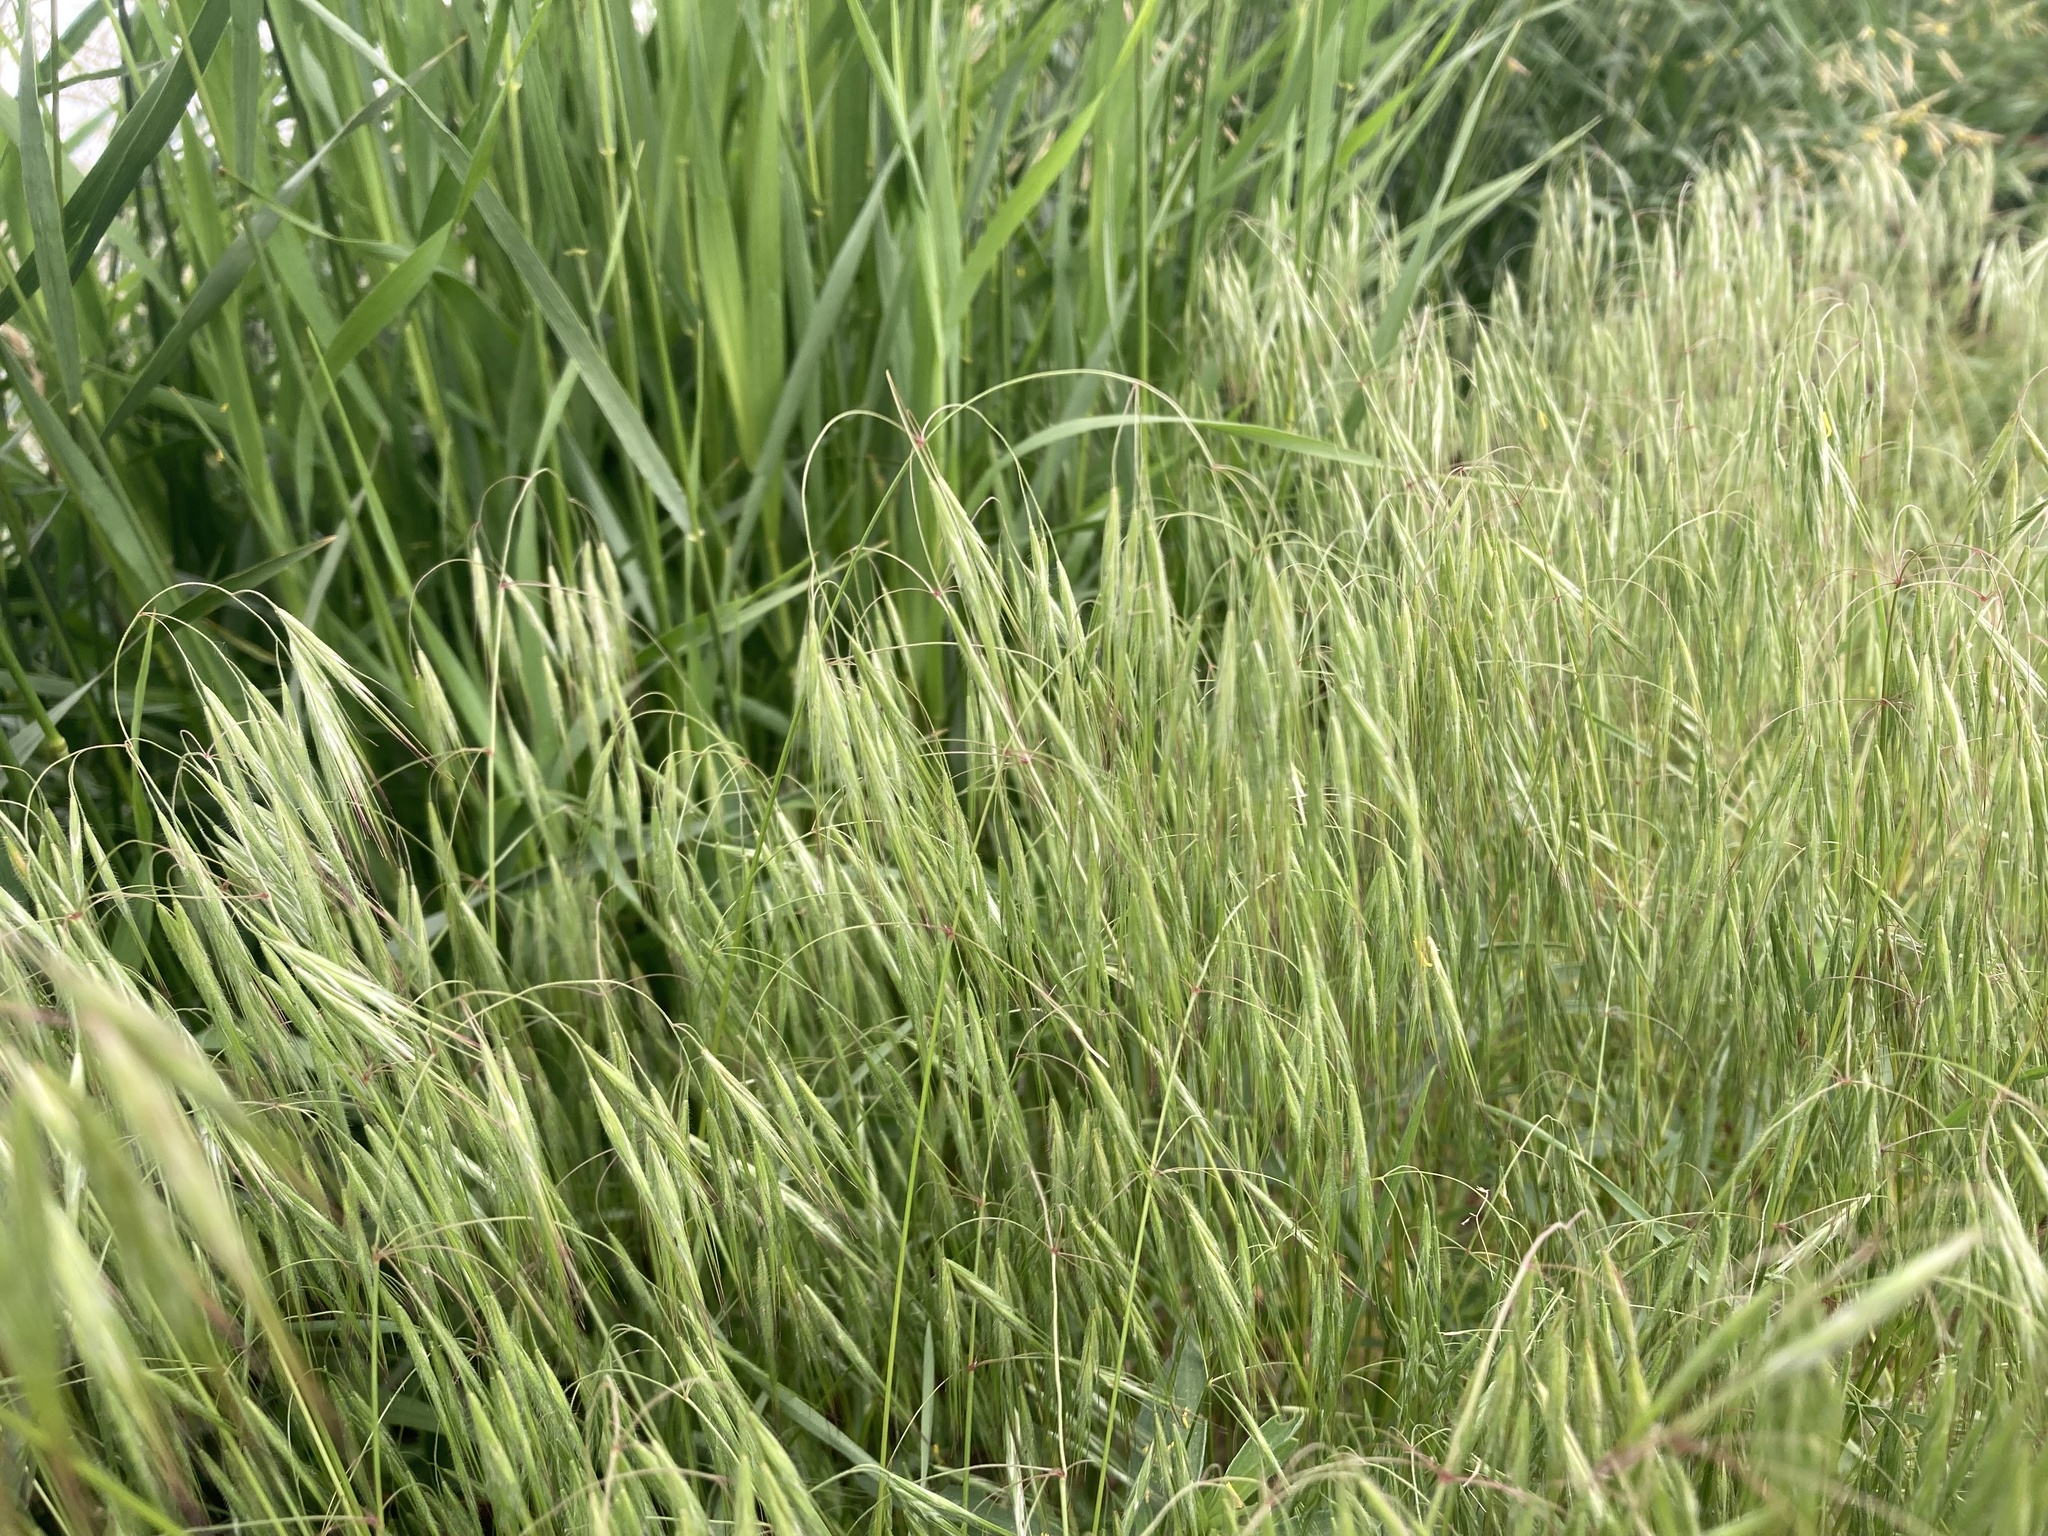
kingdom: Plantae
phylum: Tracheophyta
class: Liliopsida
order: Poales
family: Poaceae
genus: Bromus
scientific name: Bromus tectorum
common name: Cheatgrass
